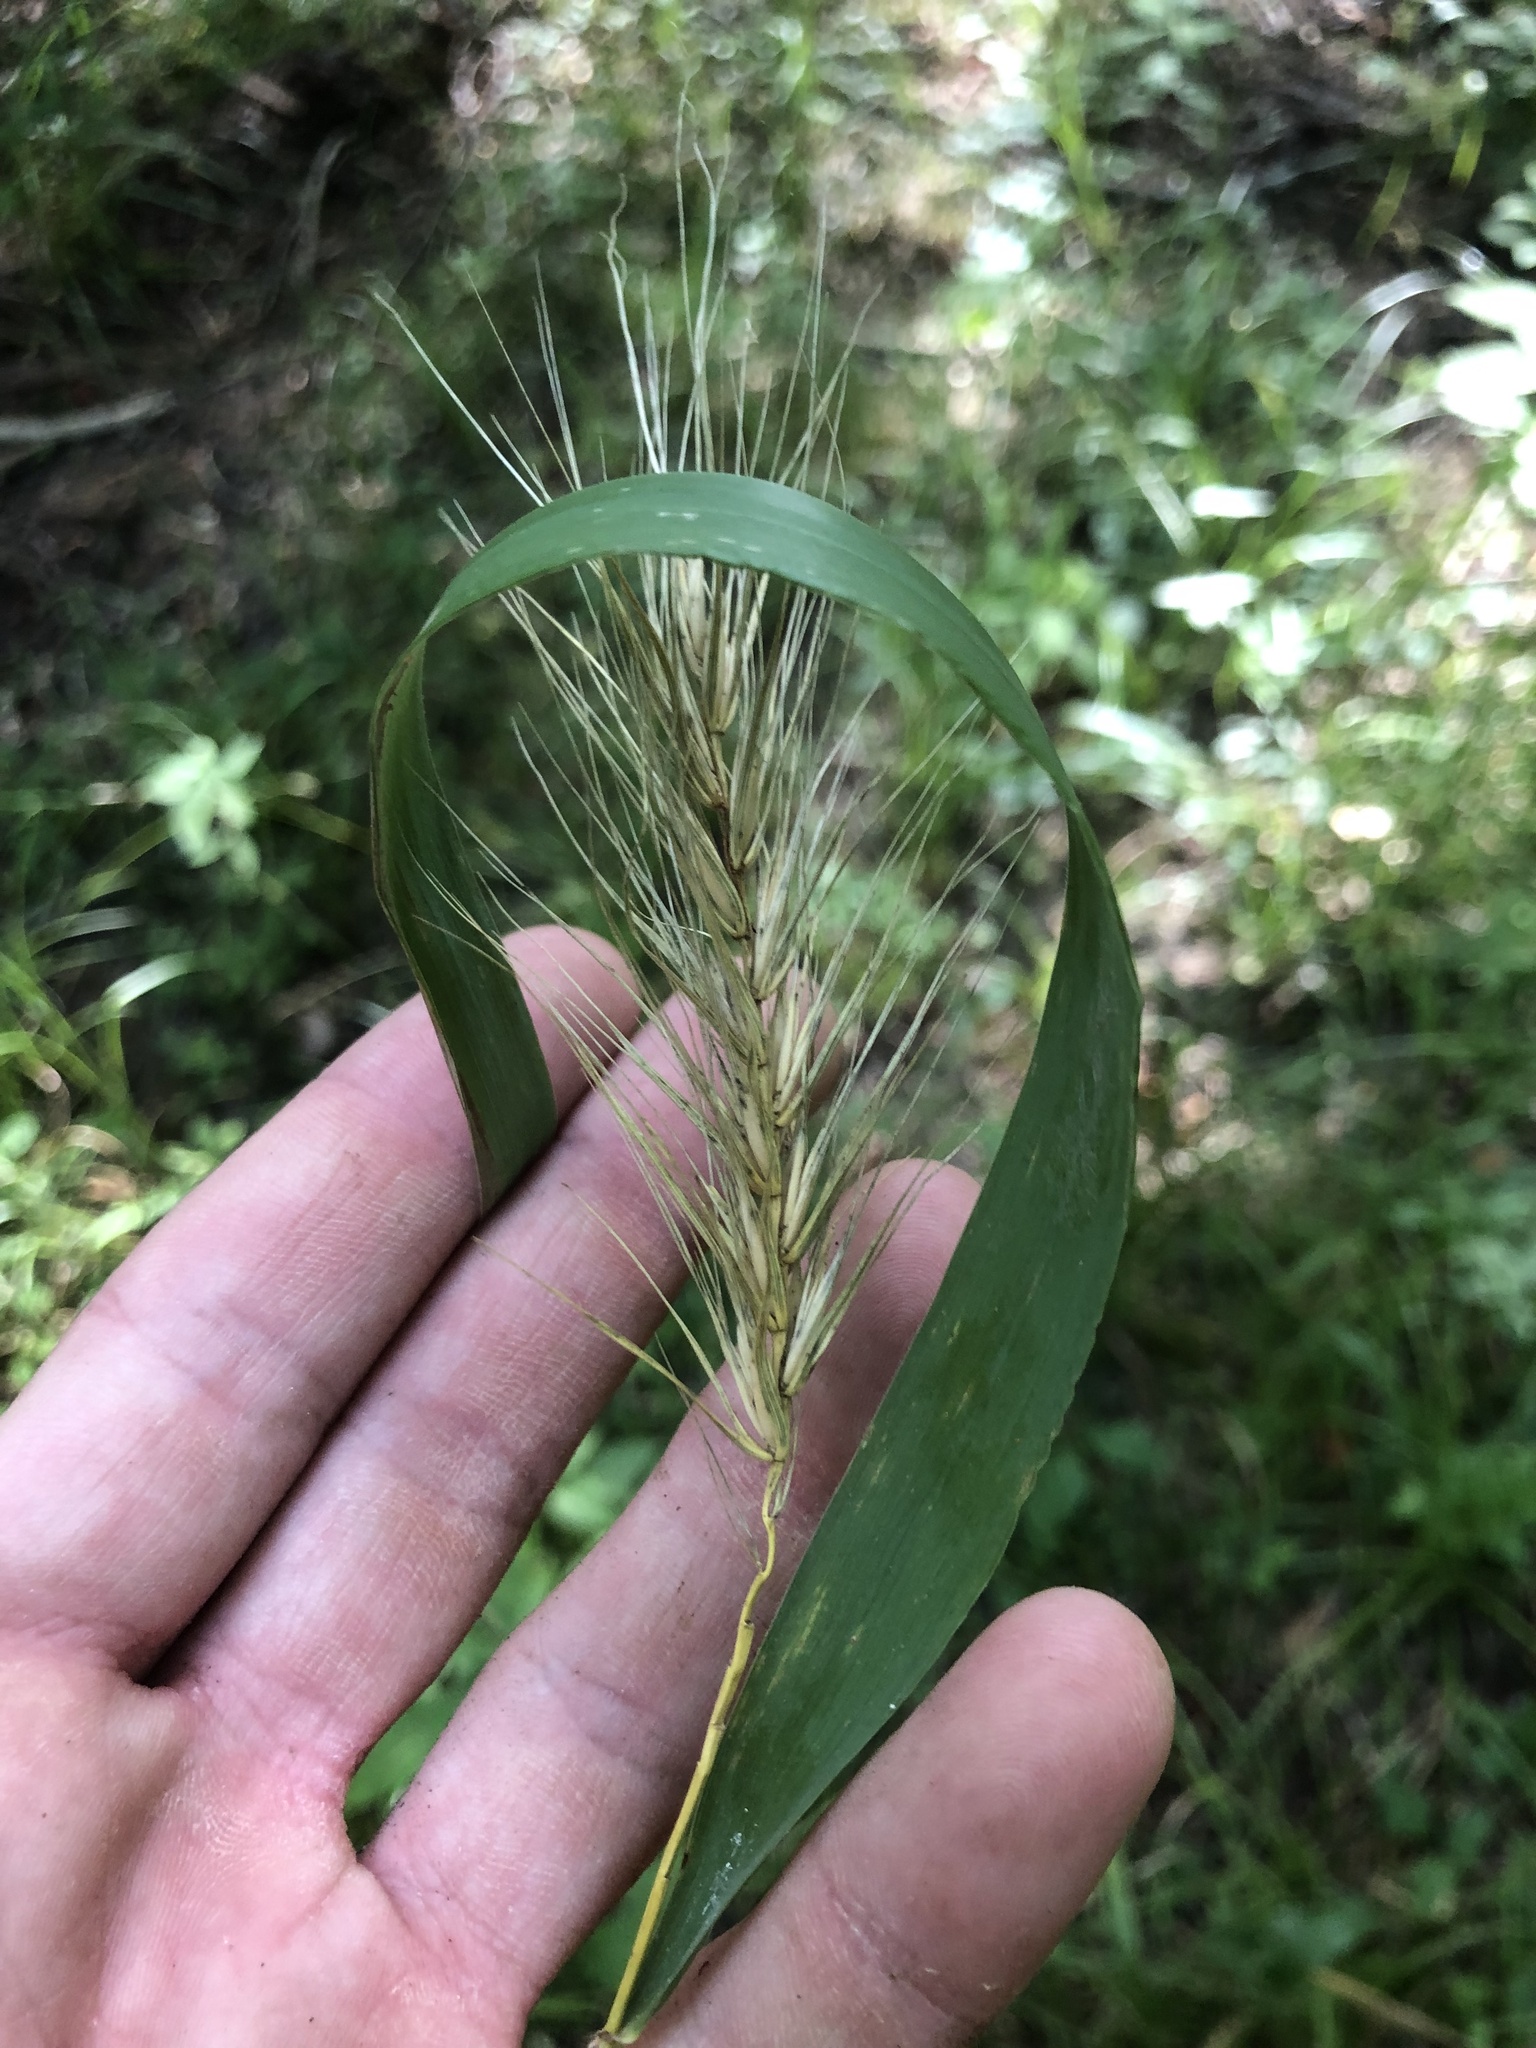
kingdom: Plantae
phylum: Tracheophyta
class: Liliopsida
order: Poales
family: Poaceae
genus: Elymus
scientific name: Elymus virginicus
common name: Common eastern wildrye
